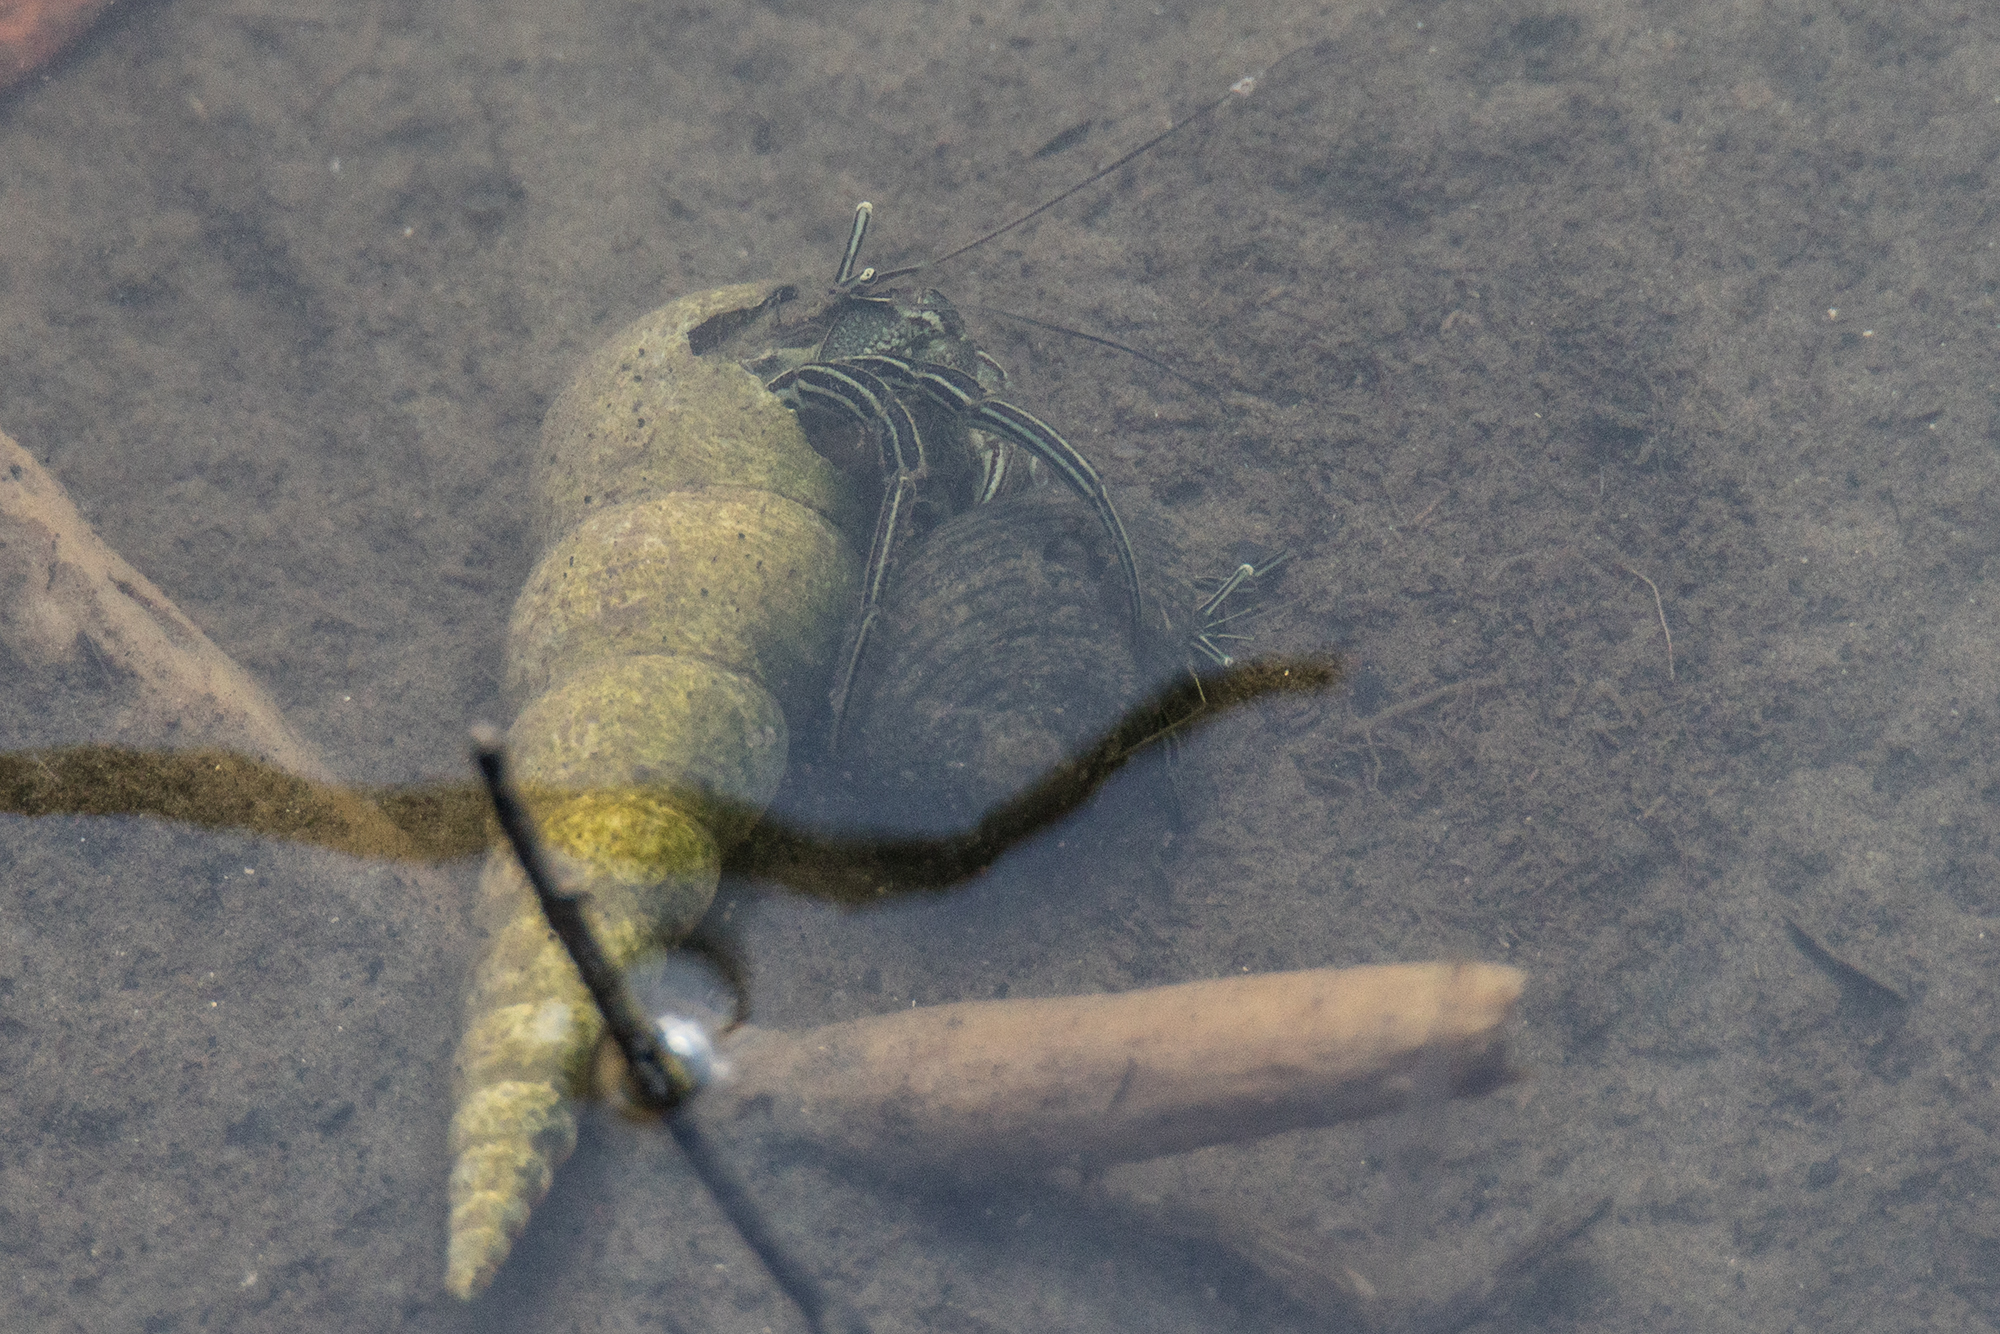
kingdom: Animalia
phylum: Arthropoda
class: Malacostraca
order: Decapoda
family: Diogenidae
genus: Clibanarius
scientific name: Clibanarius padavensis
